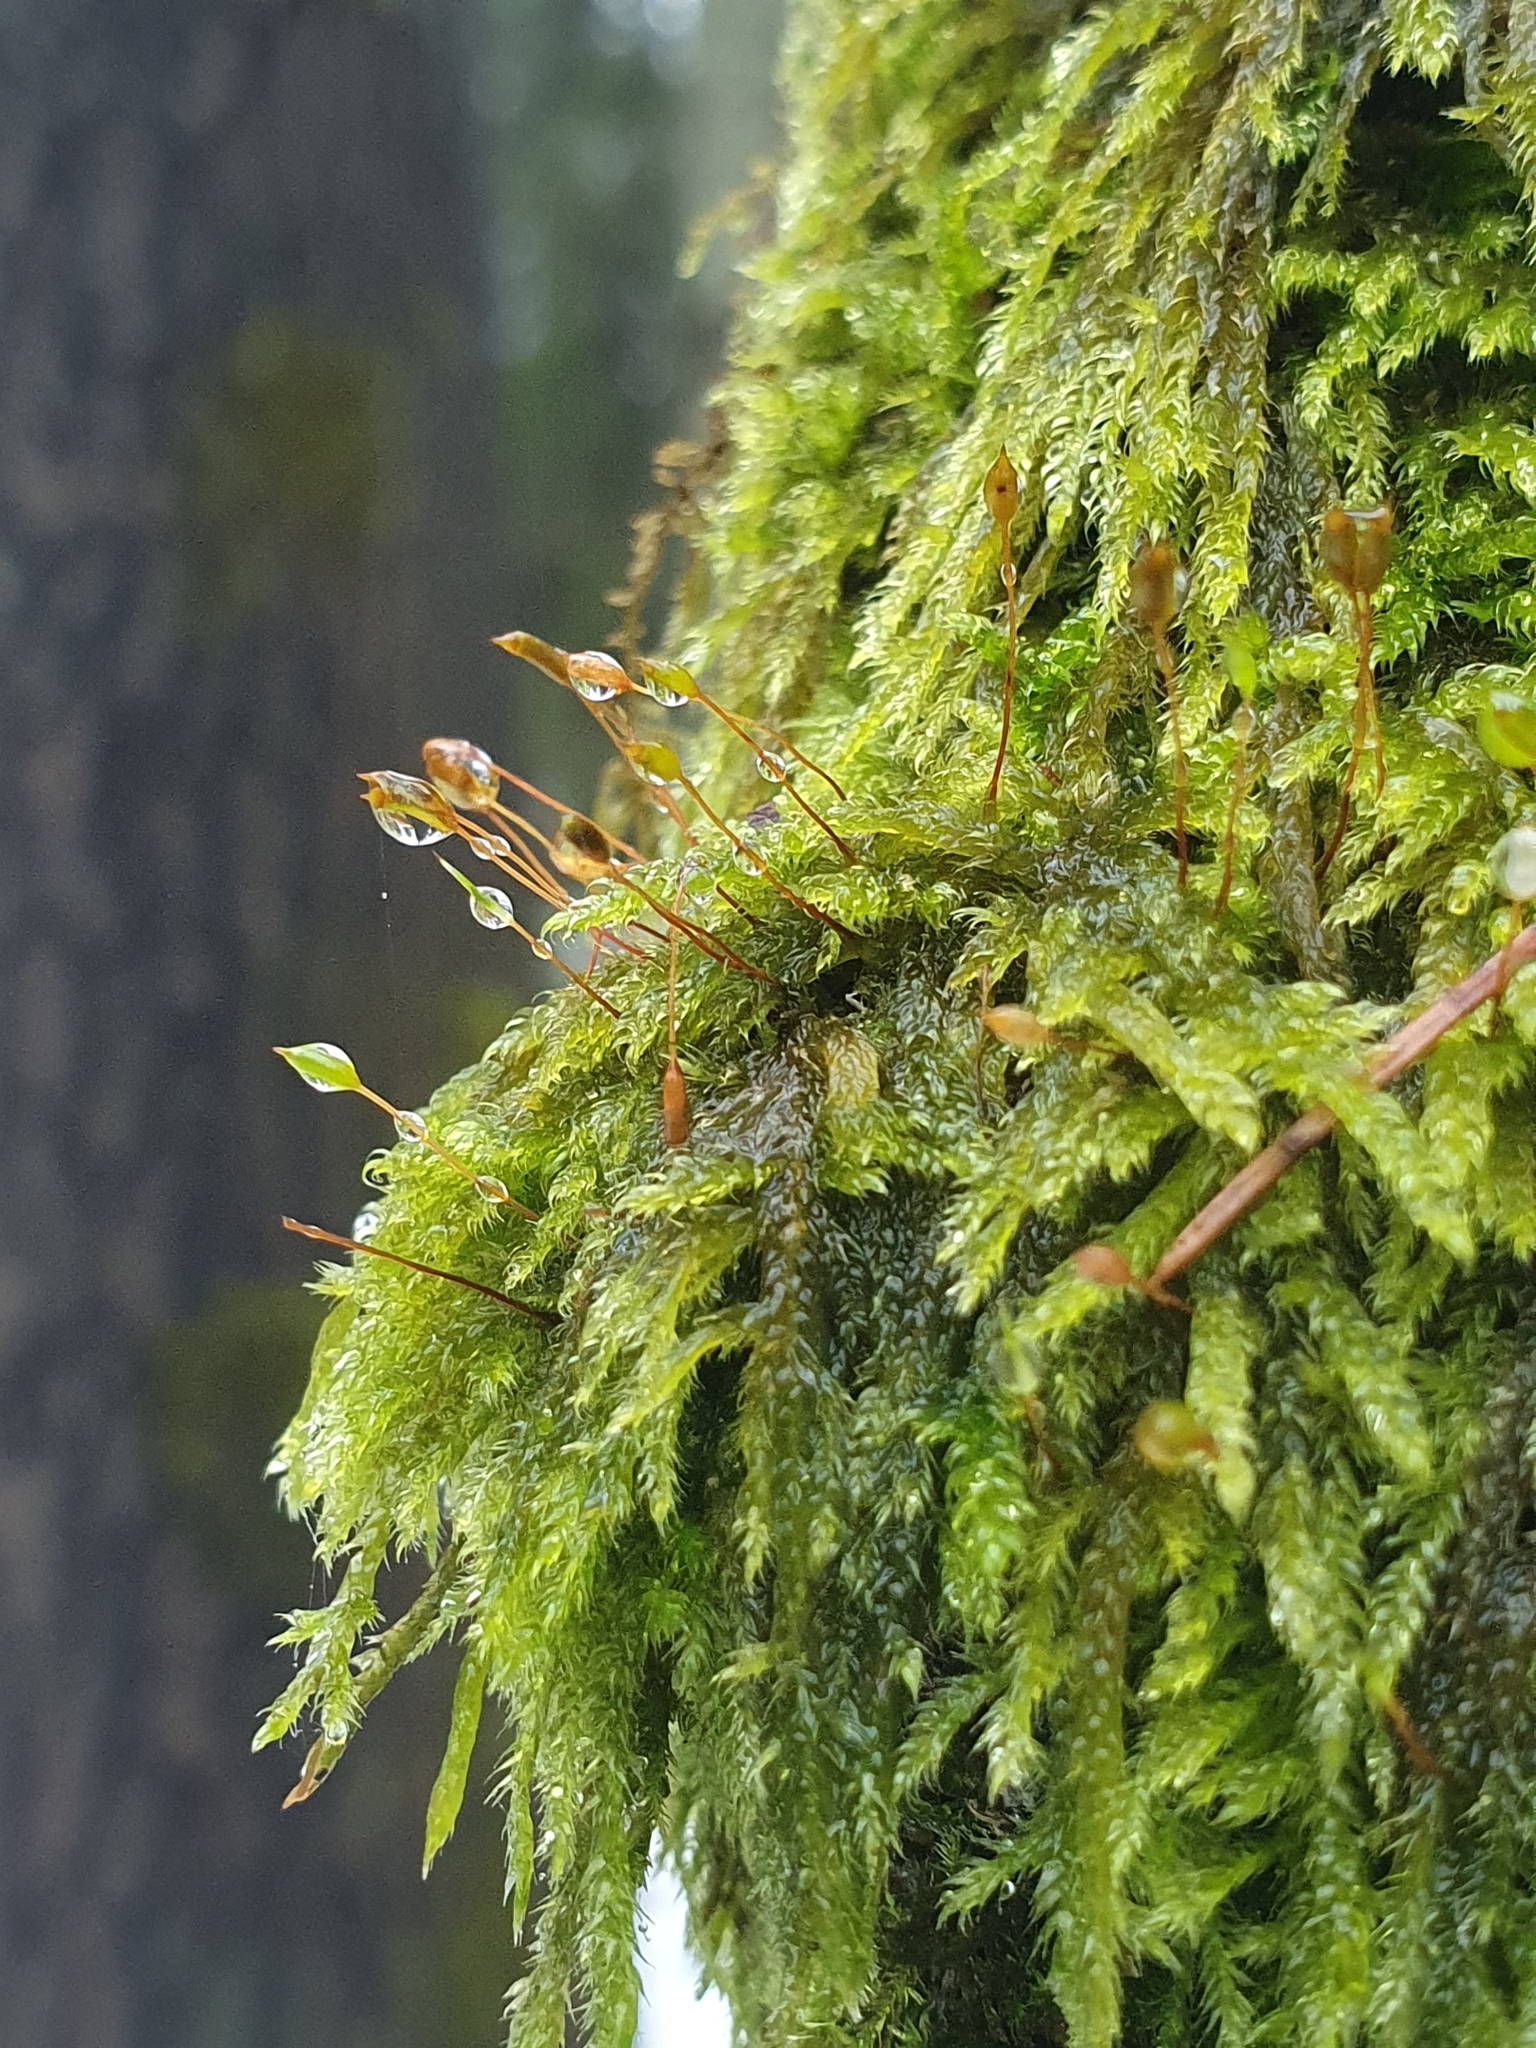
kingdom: Plantae
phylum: Bryophyta
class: Bryopsida
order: Hypnales
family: Hypnaceae
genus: Hypnum
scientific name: Hypnum cupressiforme
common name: Cypress-leaved plait-moss
